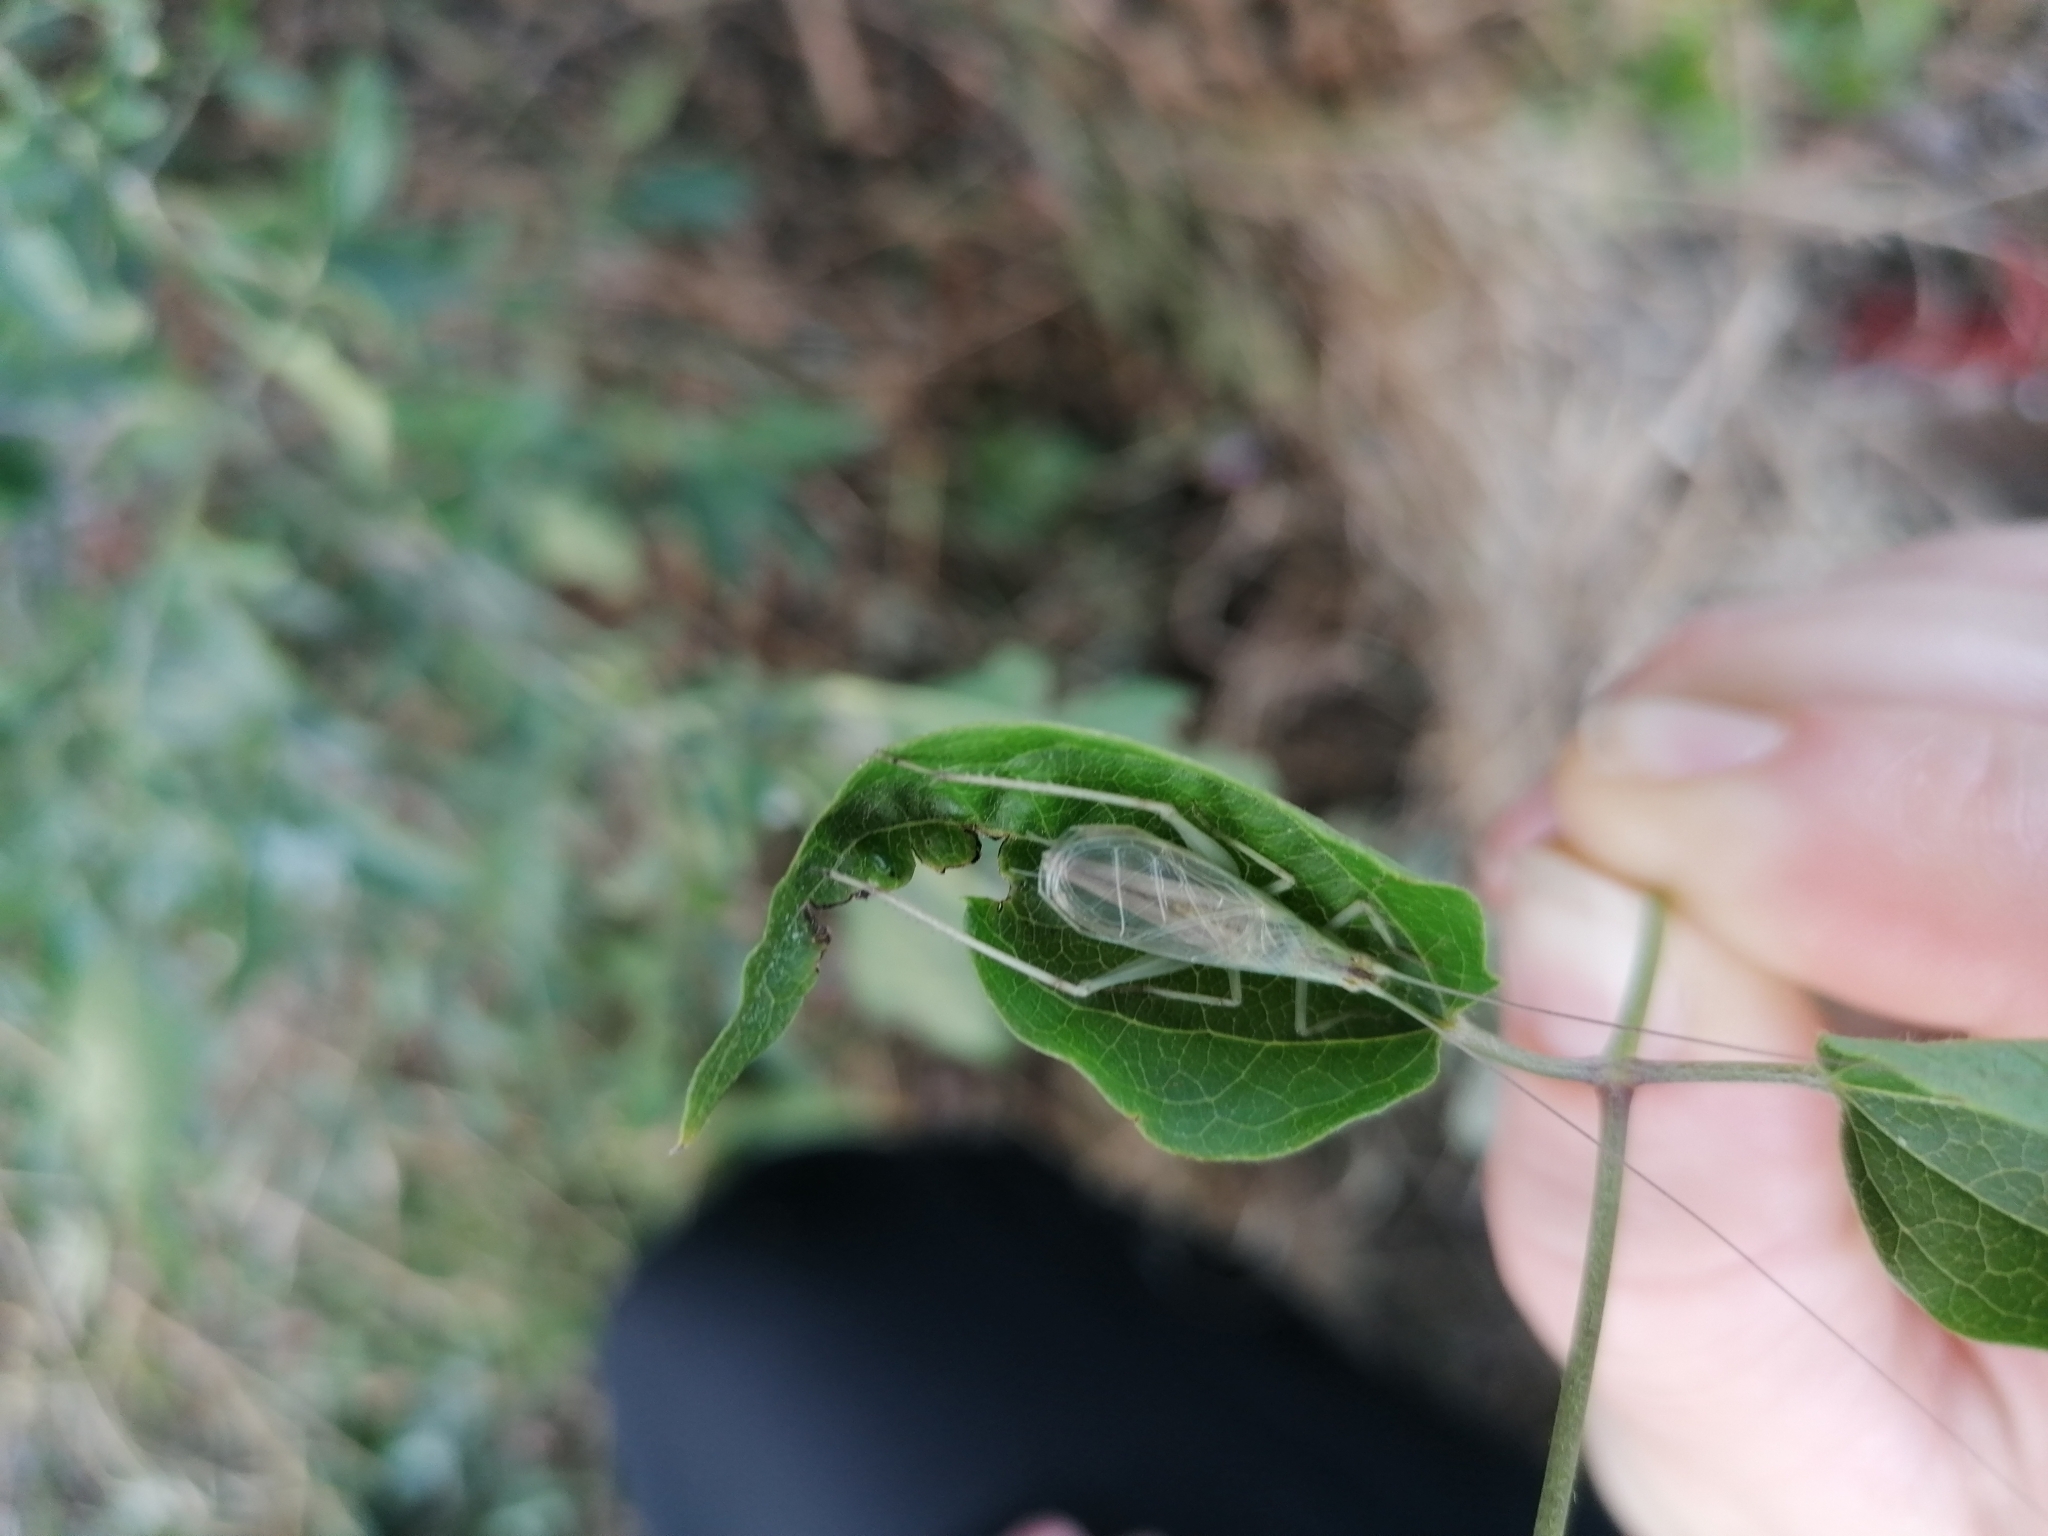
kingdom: Animalia
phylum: Arthropoda
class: Insecta
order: Orthoptera
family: Gryllidae
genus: Oecanthus
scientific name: Oecanthus pellucens
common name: Tree-cricket
